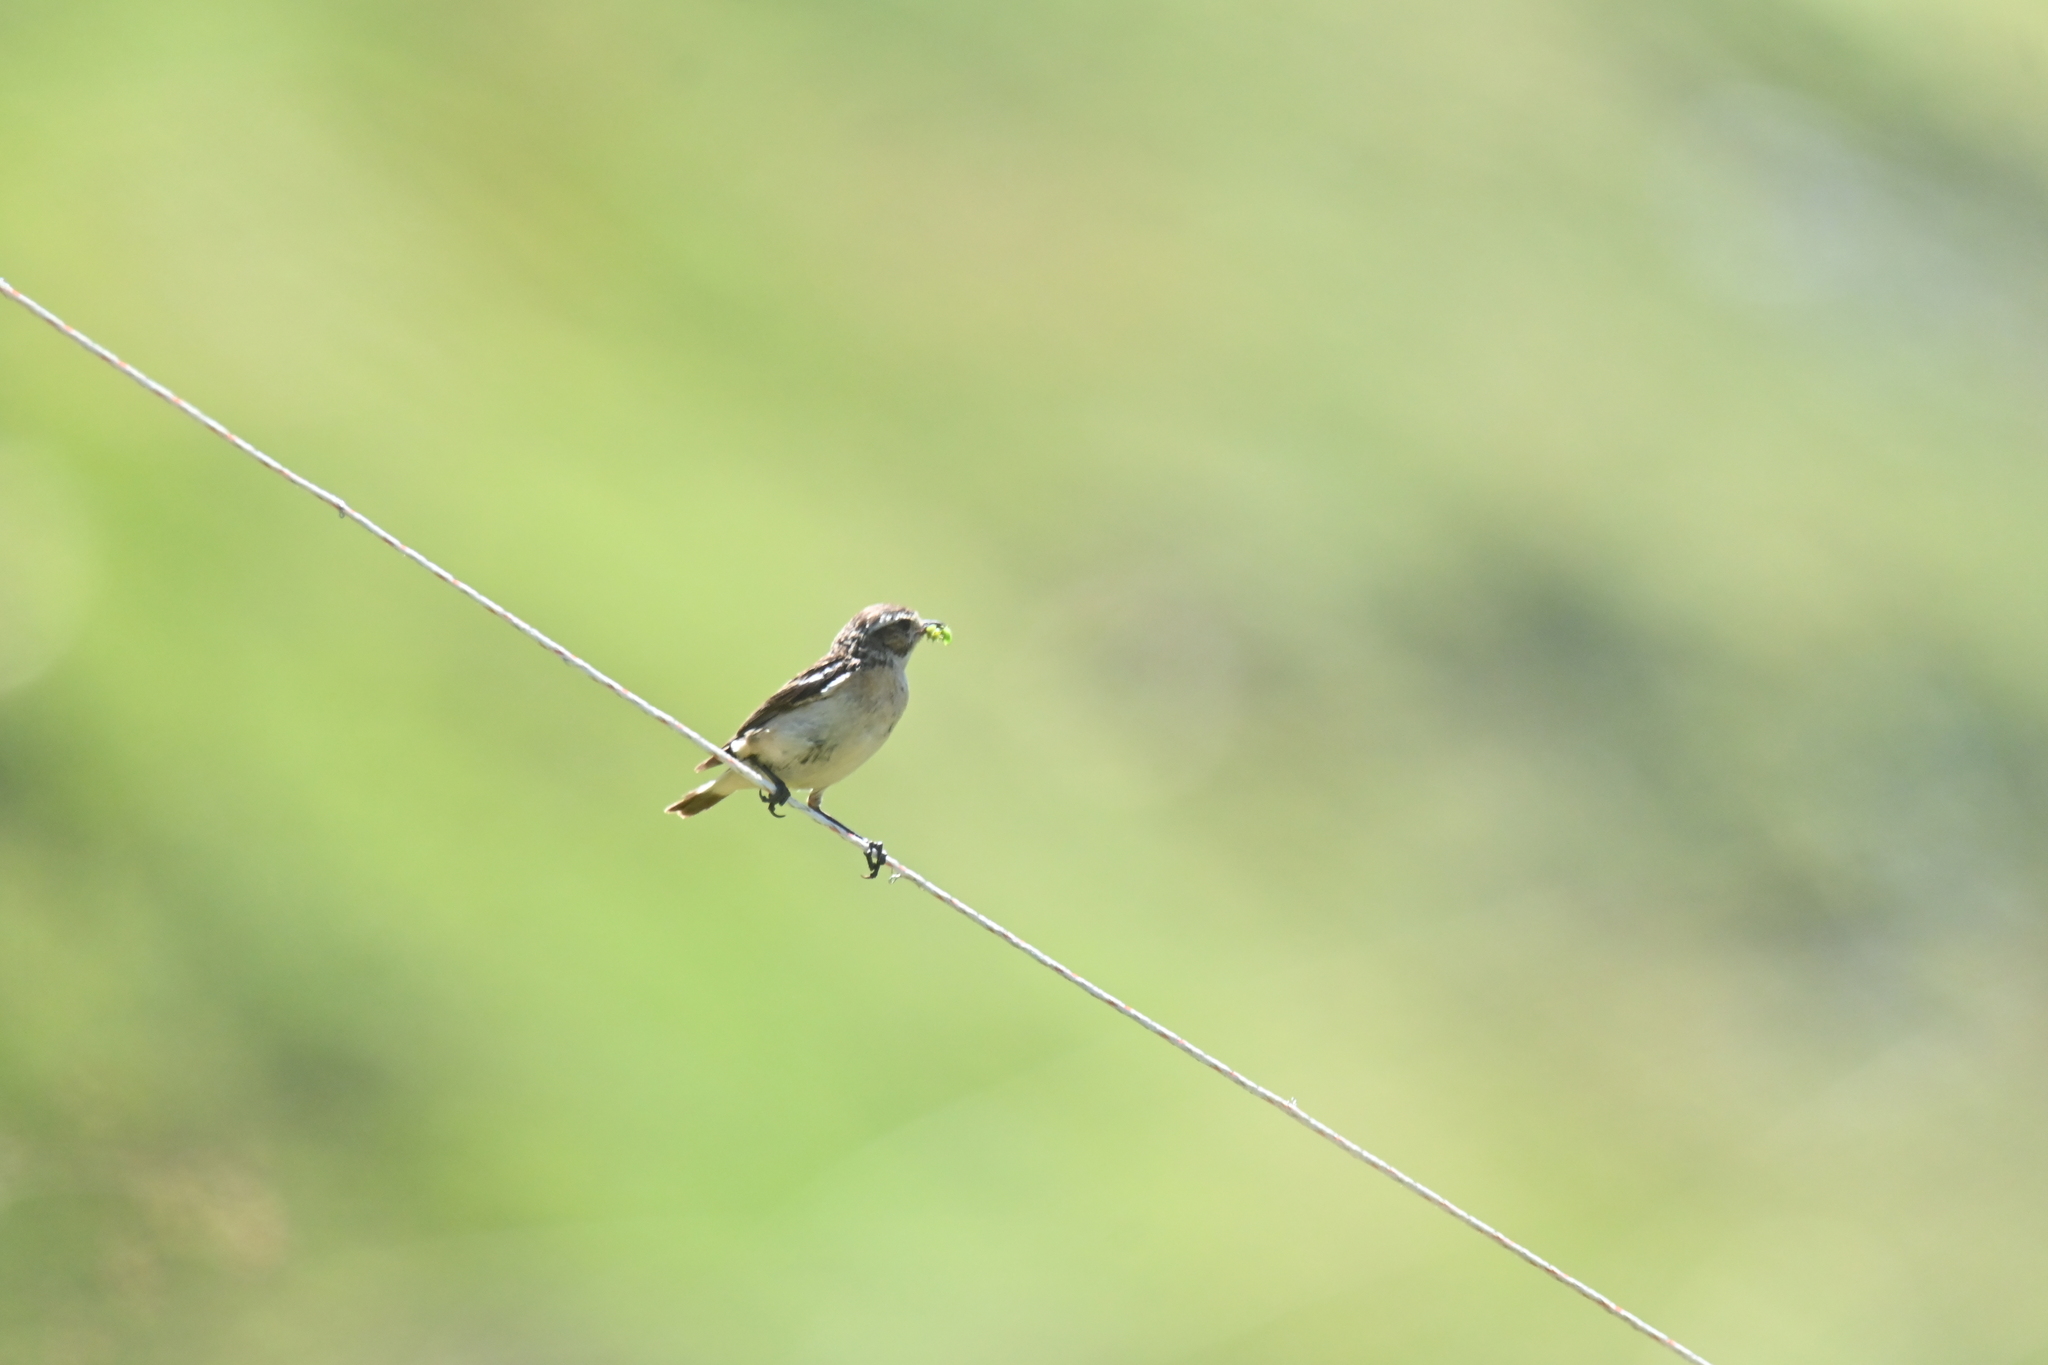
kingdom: Animalia
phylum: Chordata
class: Aves
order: Passeriformes
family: Muscicapidae
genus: Saxicola
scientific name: Saxicola rubetra
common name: Whinchat
